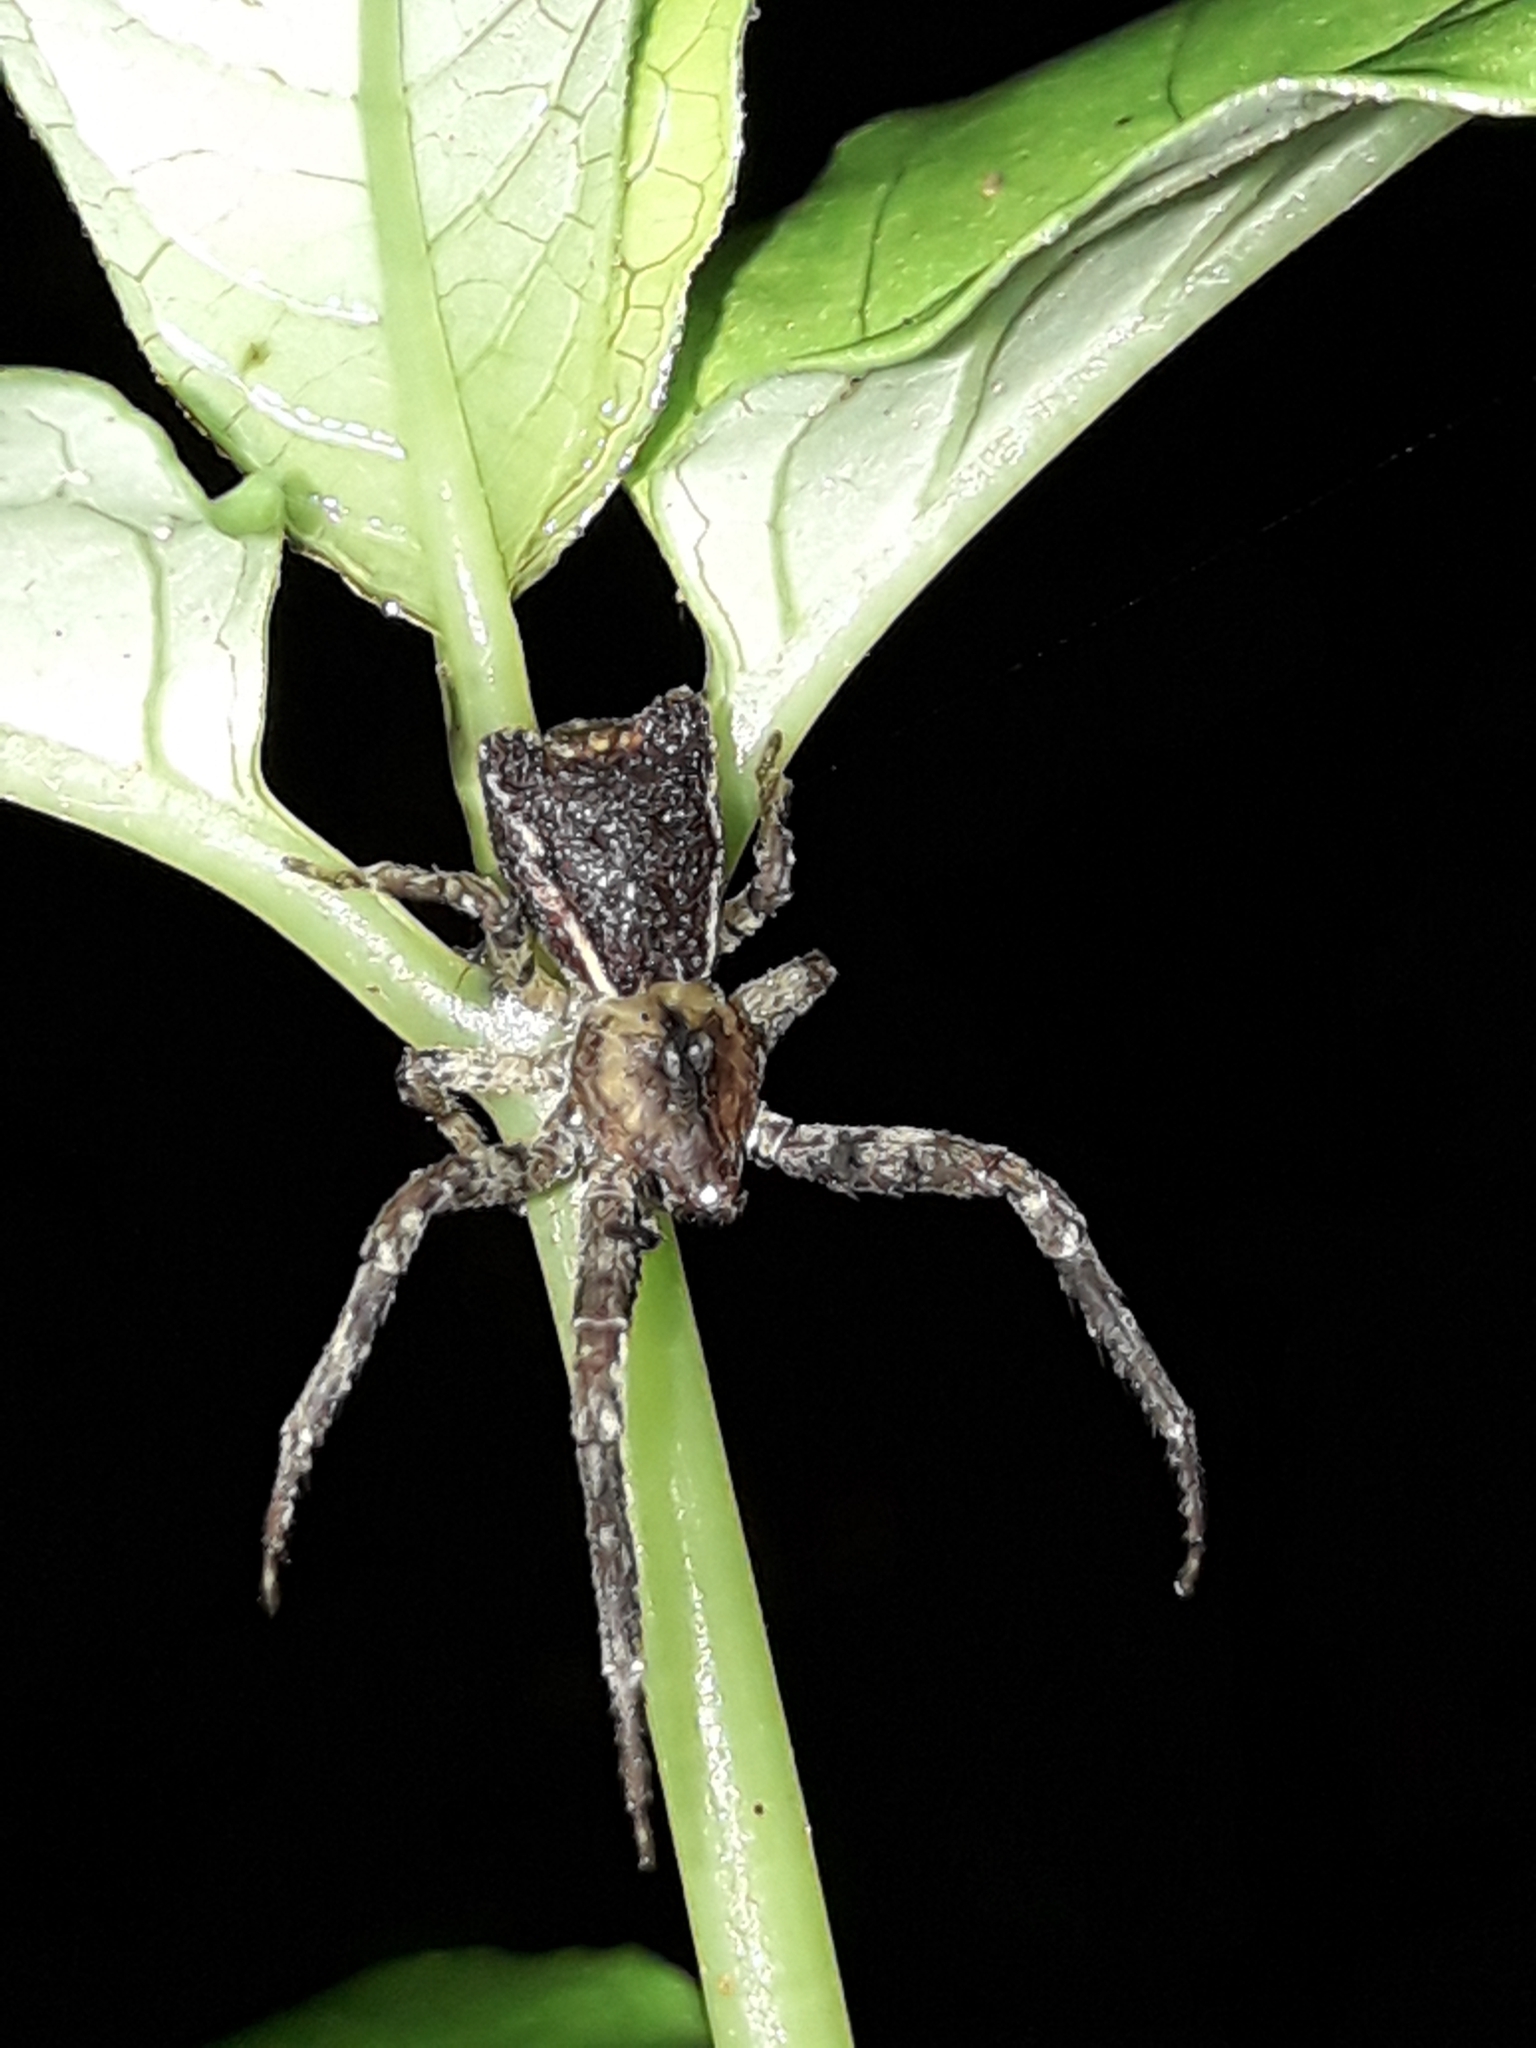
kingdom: Animalia
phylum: Arthropoda
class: Arachnida
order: Araneae
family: Thomisidae
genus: Sidymella
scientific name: Sidymella angularis
